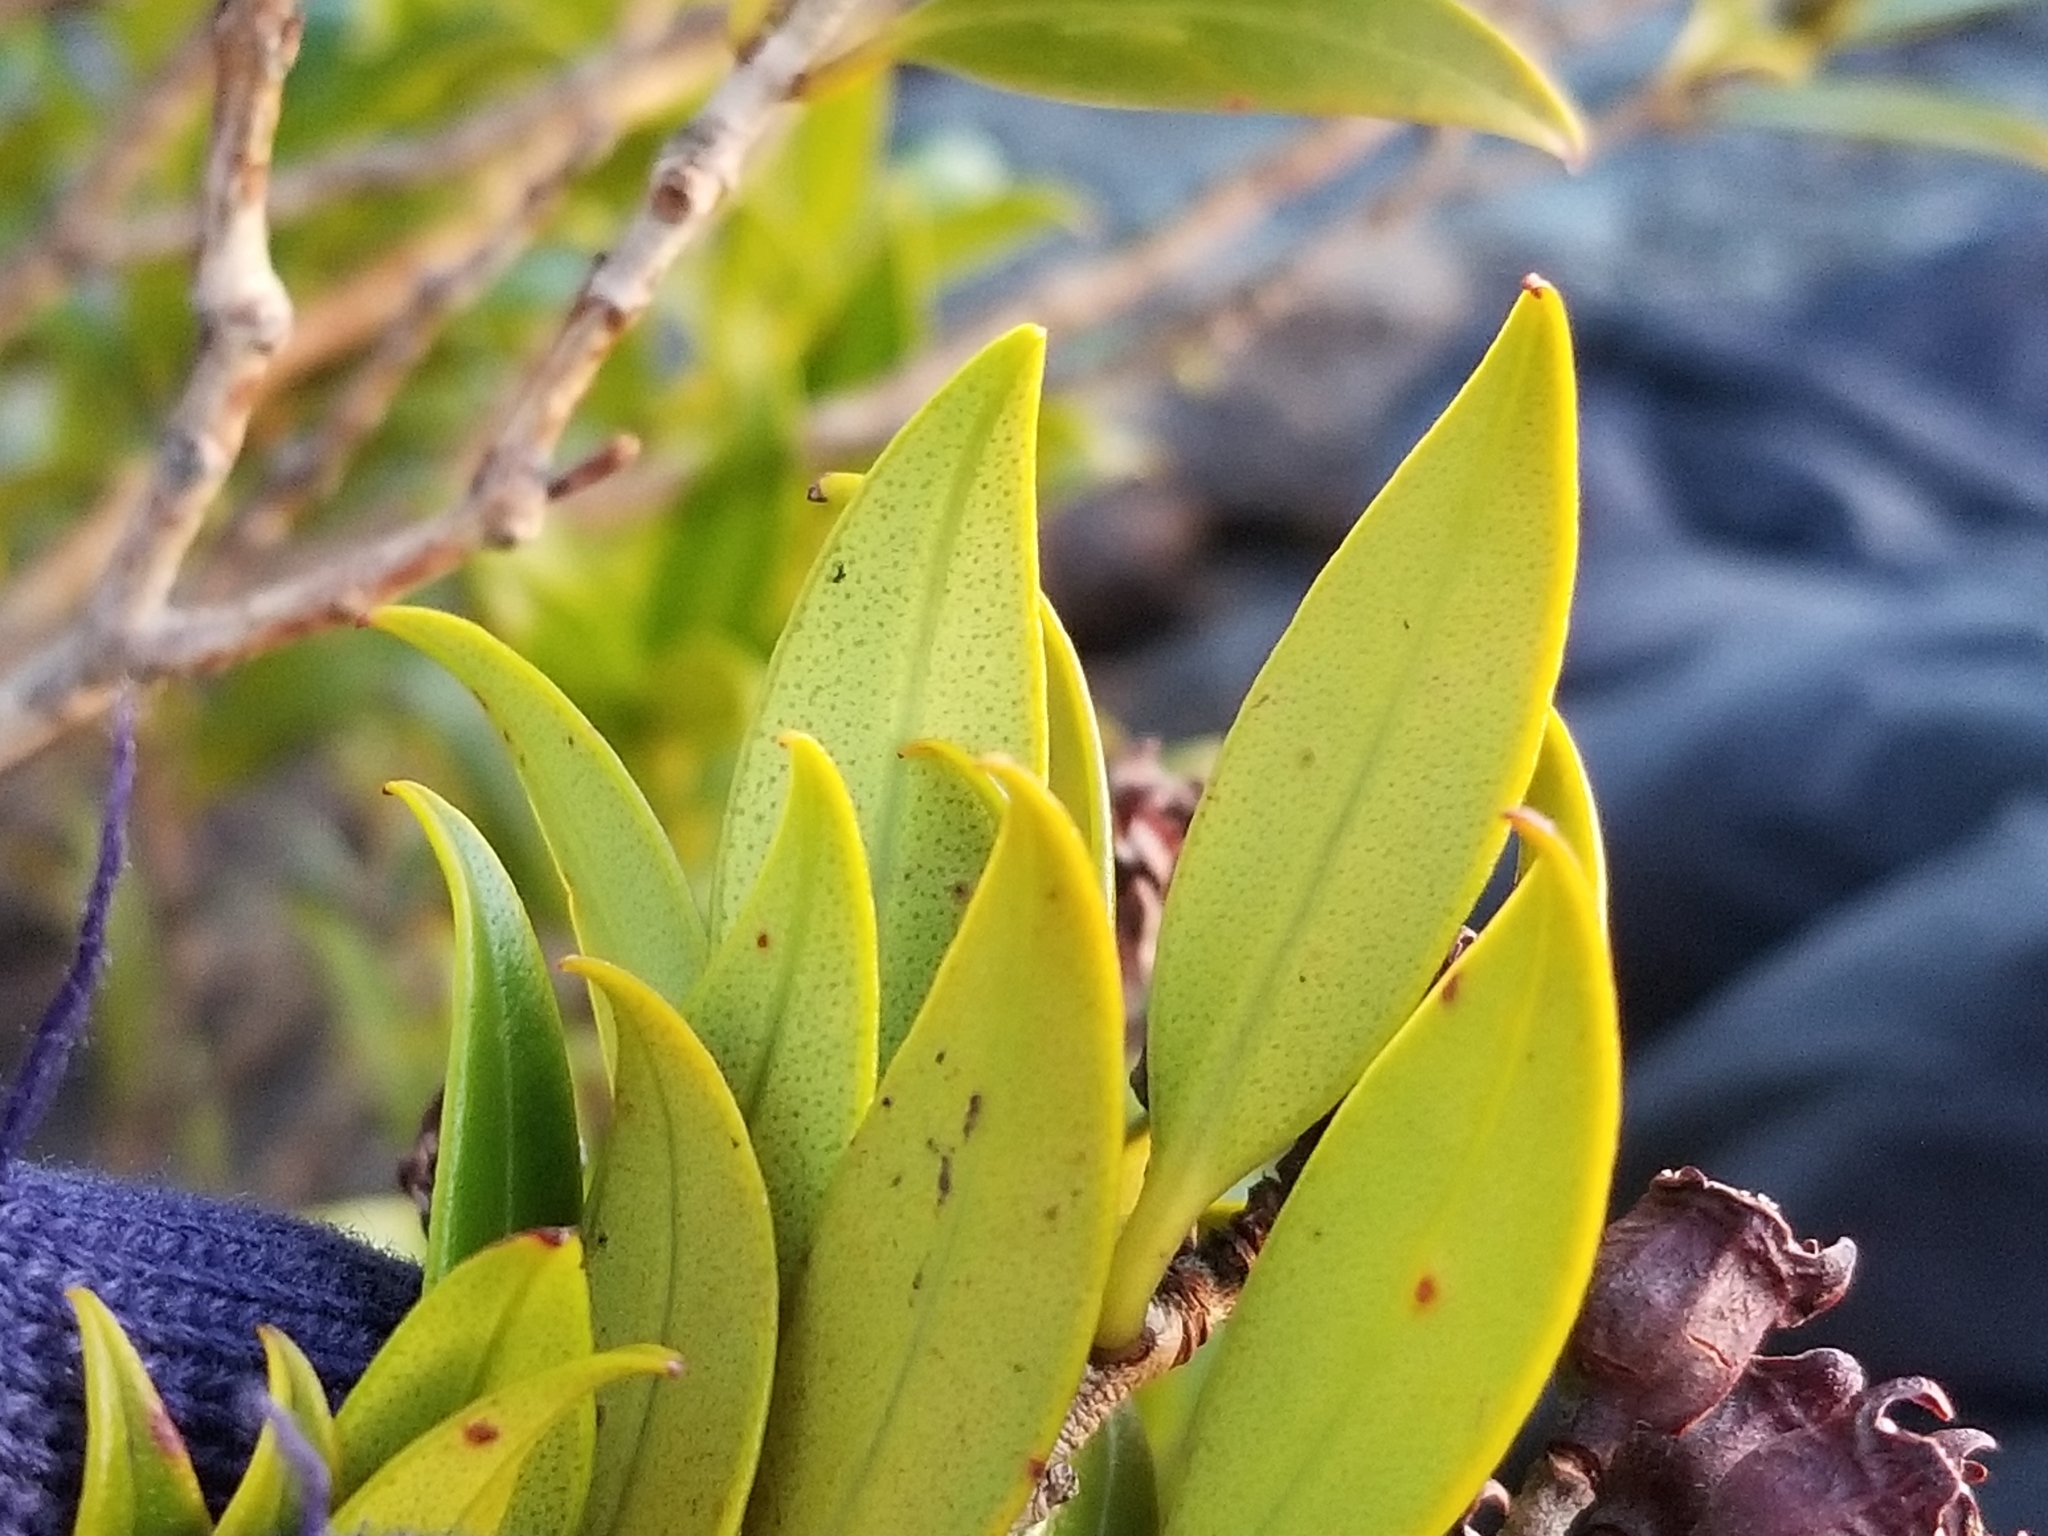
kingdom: Plantae
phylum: Tracheophyta
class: Magnoliopsida
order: Myrtales
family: Myrtaceae
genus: Metrosideros
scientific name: Metrosideros umbellata
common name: Southern rata
